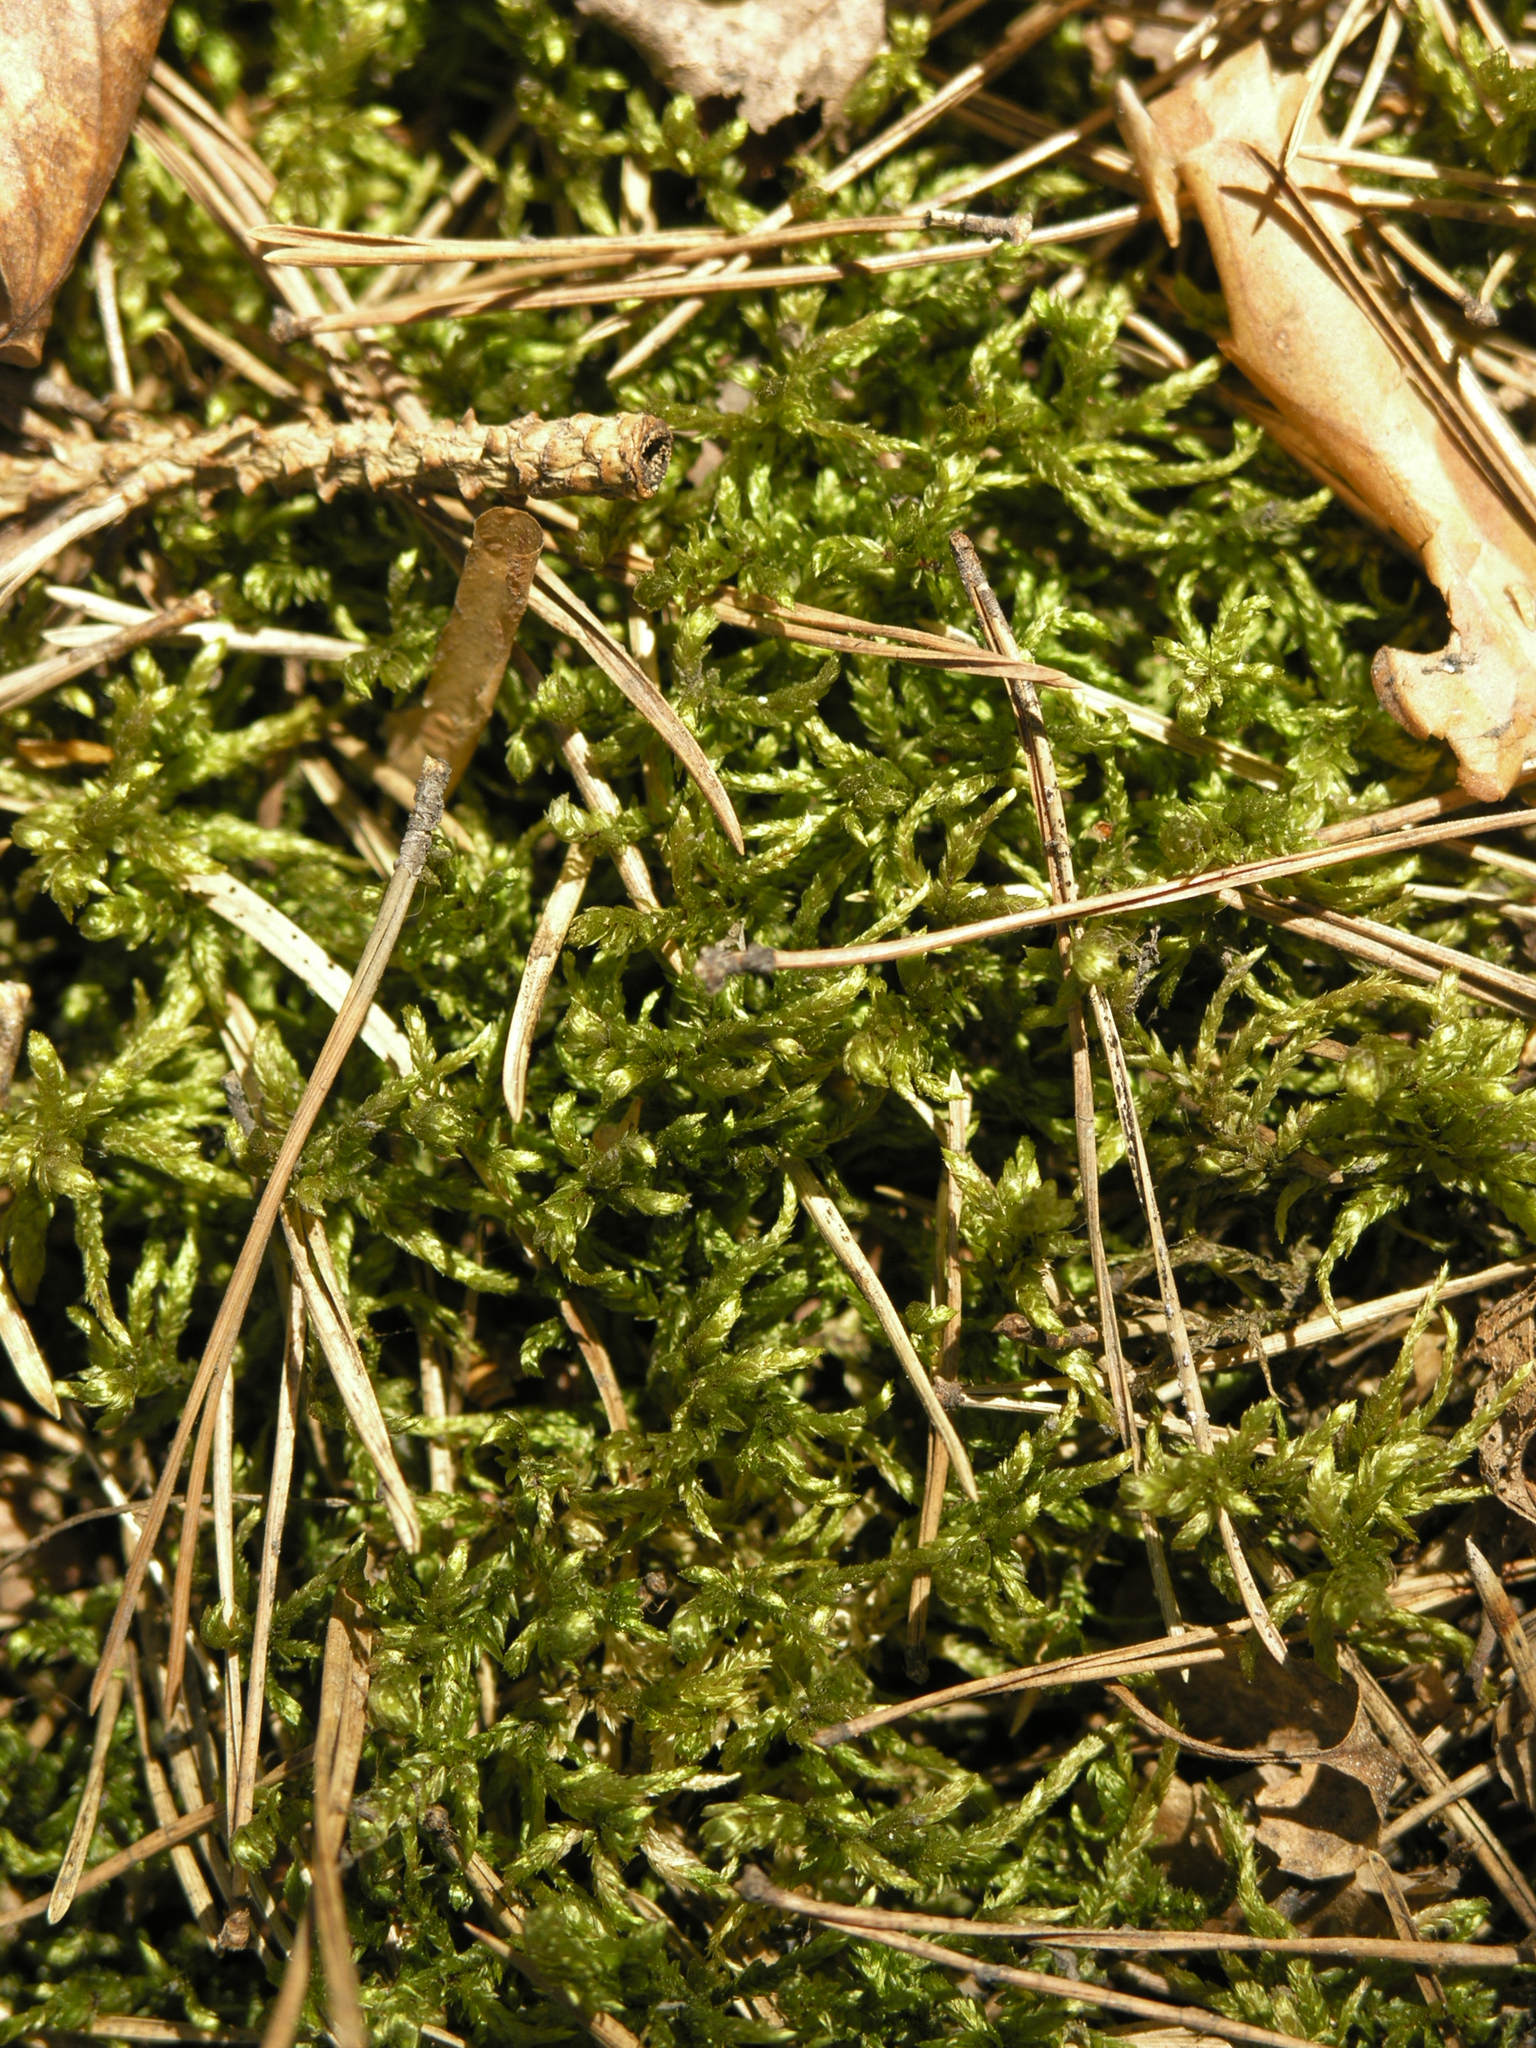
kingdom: Plantae
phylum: Bryophyta
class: Bryopsida
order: Hypnales
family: Hylocomiaceae
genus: Pleurozium
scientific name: Pleurozium schreberi
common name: Red-stemmed feather moss
